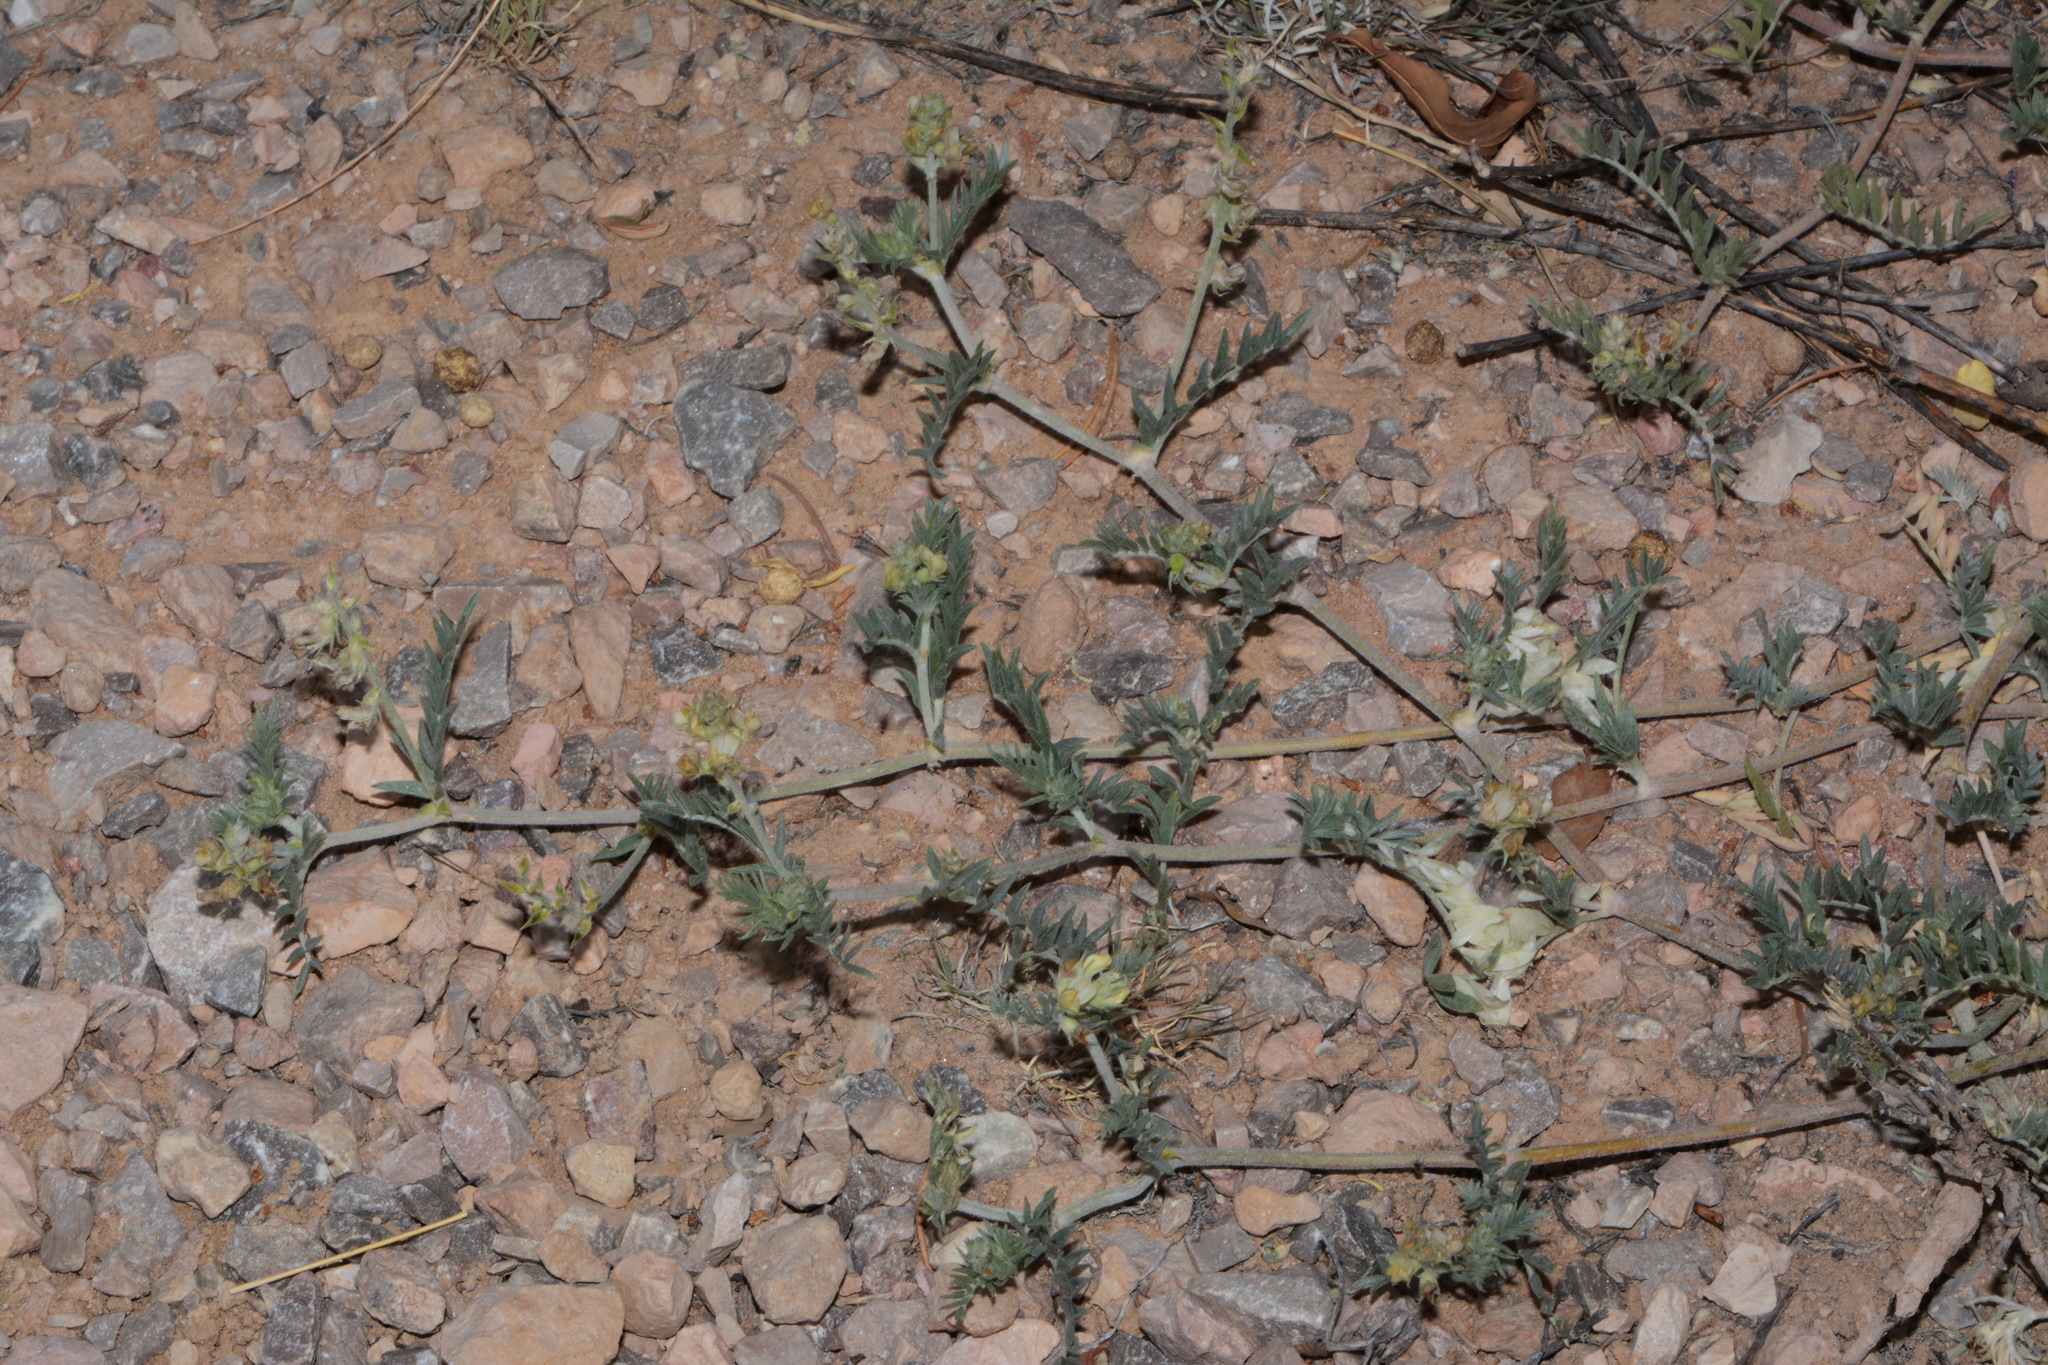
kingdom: Plantae
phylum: Tracheophyta
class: Magnoliopsida
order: Fabales
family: Fabaceae
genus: Astragalus
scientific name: Astragalus humistratus
